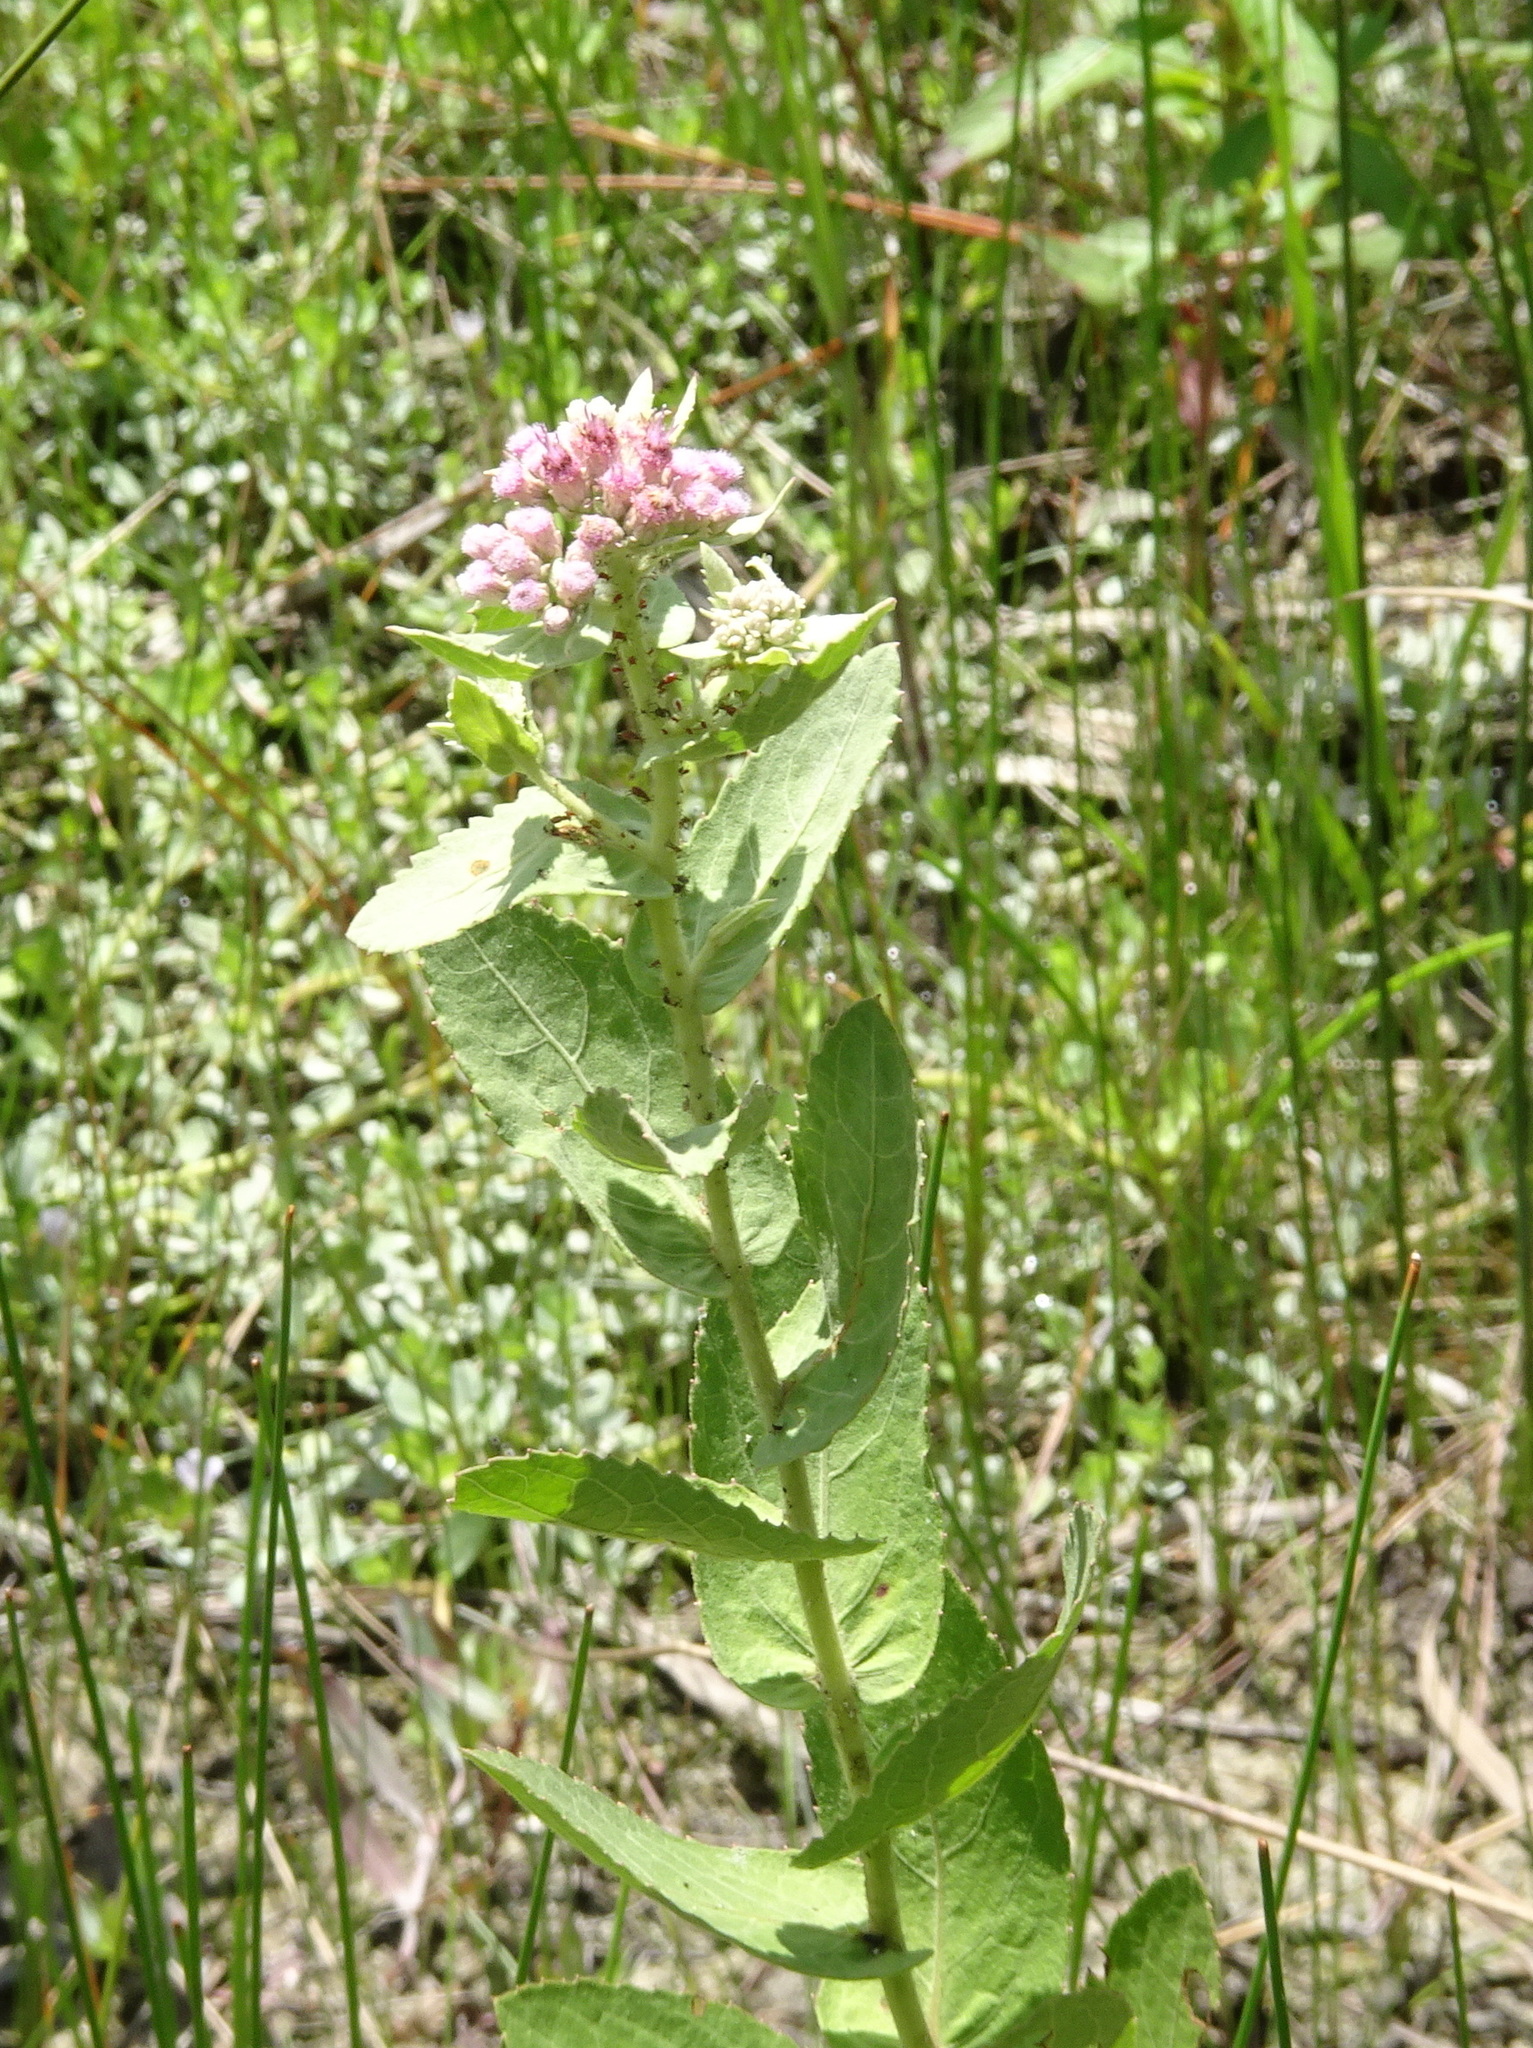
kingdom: Plantae
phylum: Tracheophyta
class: Magnoliopsida
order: Asterales
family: Asteraceae
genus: Pluchea
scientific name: Pluchea baccharis
